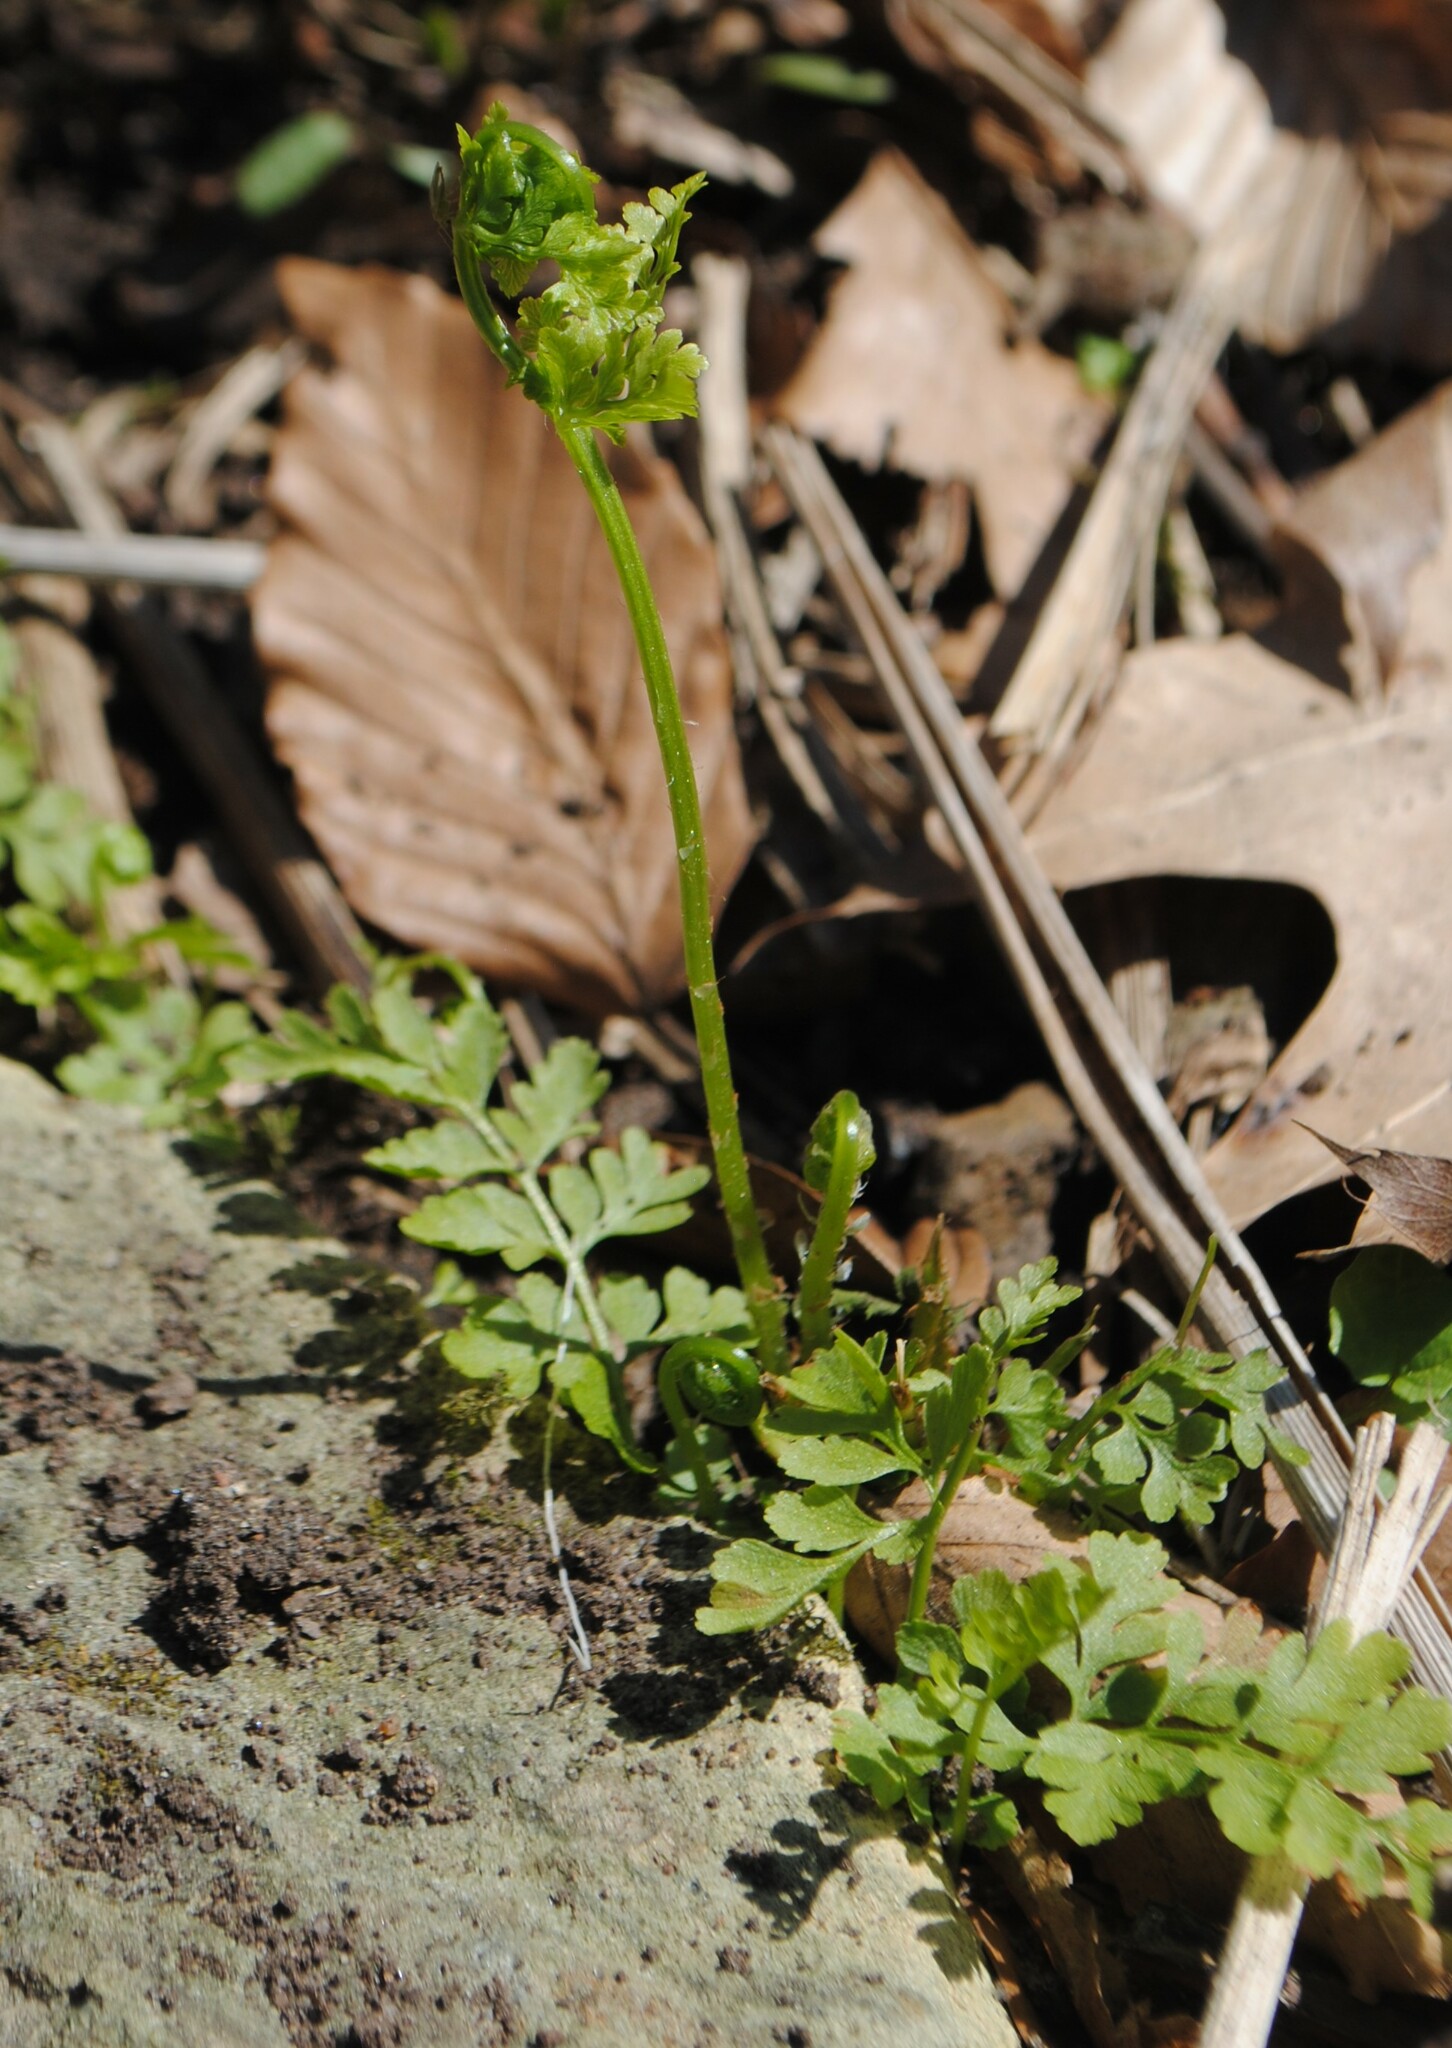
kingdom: Plantae
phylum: Tracheophyta
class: Polypodiopsida
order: Polypodiales
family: Cystopteridaceae
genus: Cystopteris
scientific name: Cystopteris protrusa
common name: Lowland brittle fern
